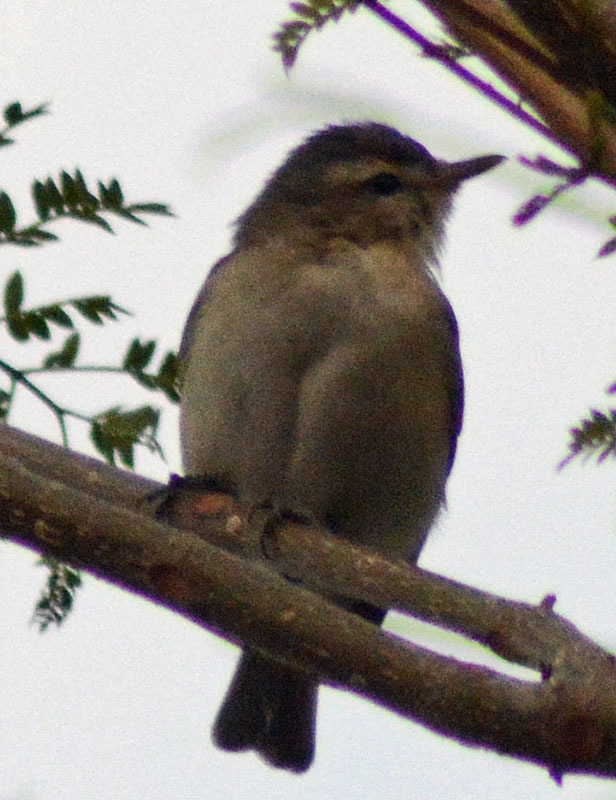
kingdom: Animalia
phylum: Chordata
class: Aves
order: Passeriformes
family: Vireonidae
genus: Vireo
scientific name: Vireo gilvus
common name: Warbling vireo
